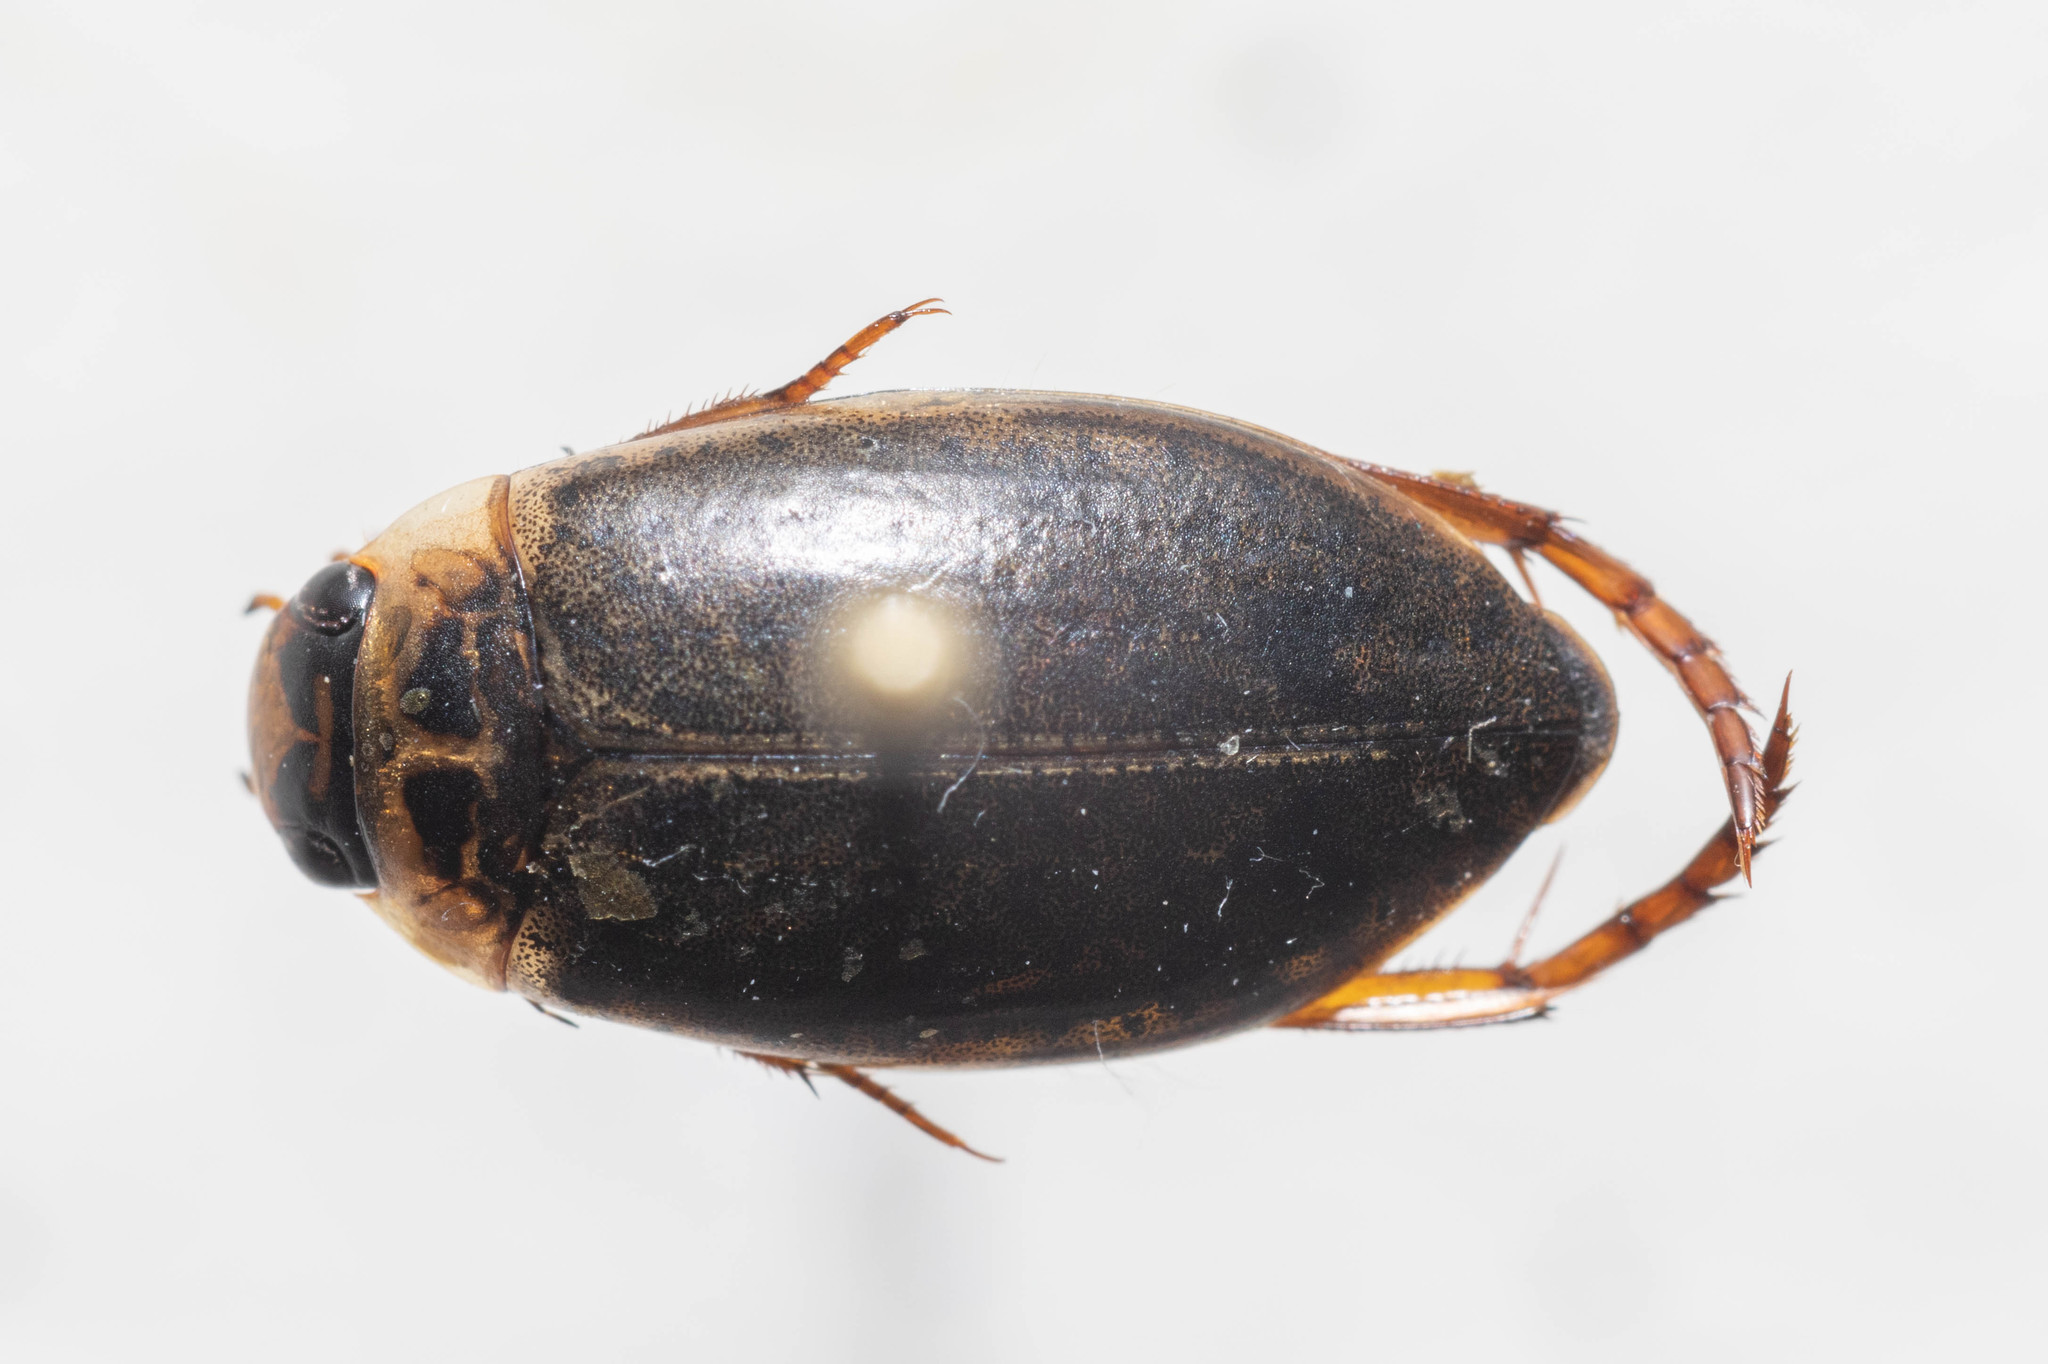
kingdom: Animalia
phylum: Arthropoda
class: Insecta
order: Coleoptera
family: Dytiscidae
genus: Rhantus
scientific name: Rhantus binotatus
